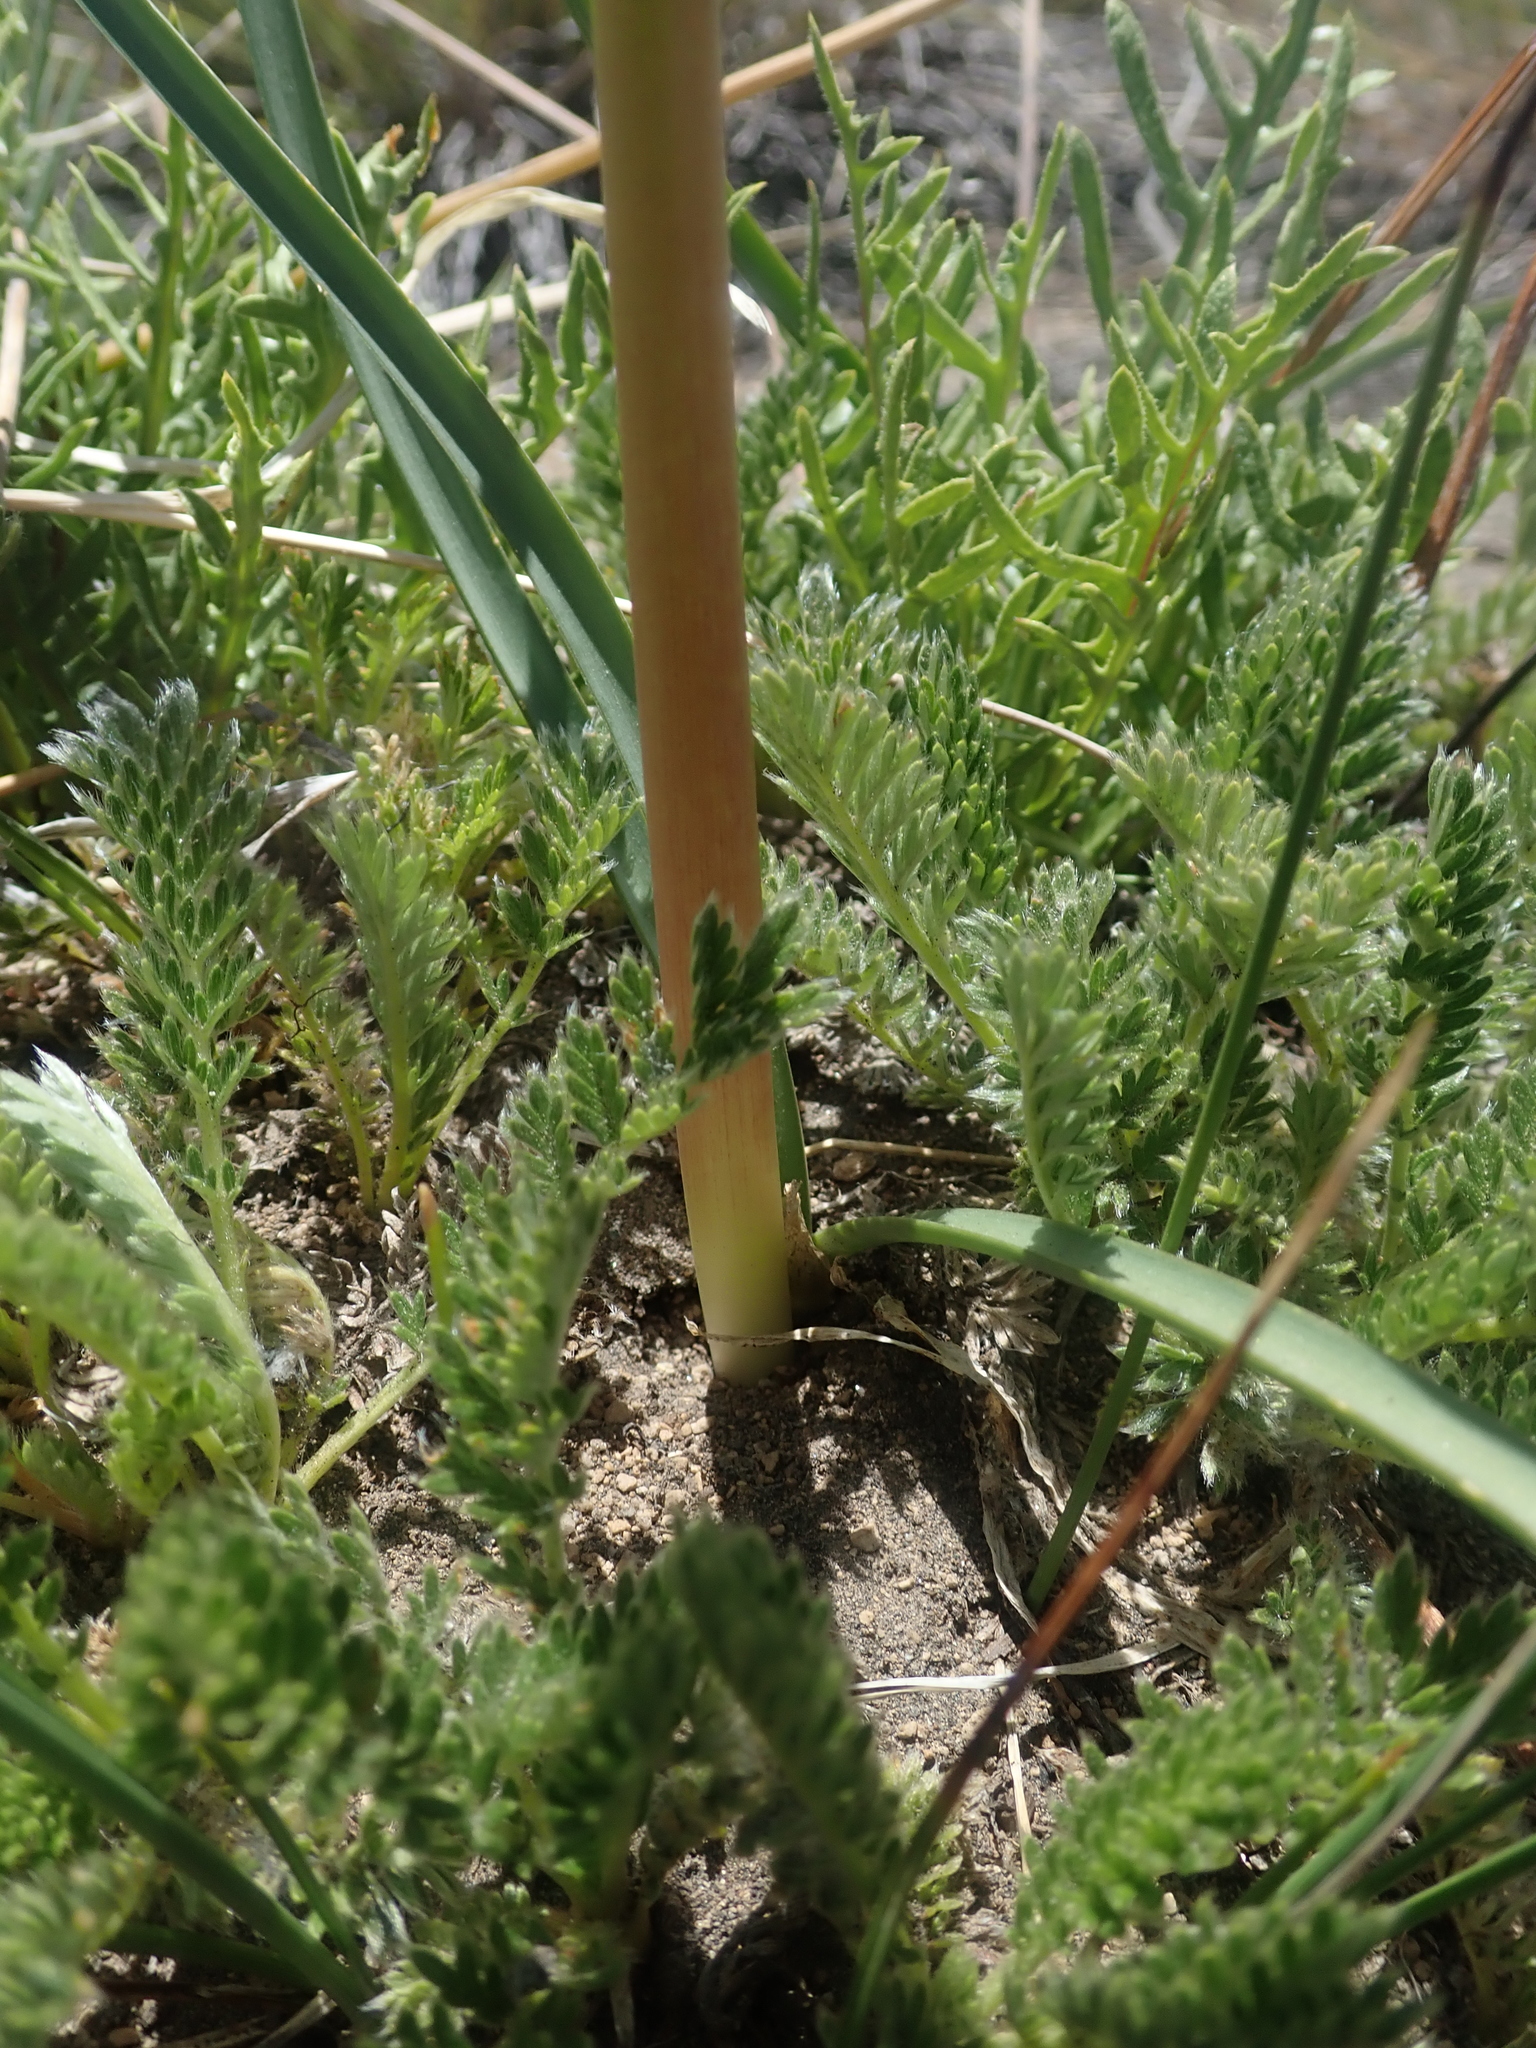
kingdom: Plantae
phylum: Tracheophyta
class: Liliopsida
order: Asparagales
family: Amaryllidaceae
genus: Zephyranthes
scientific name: Zephyranthes montana
